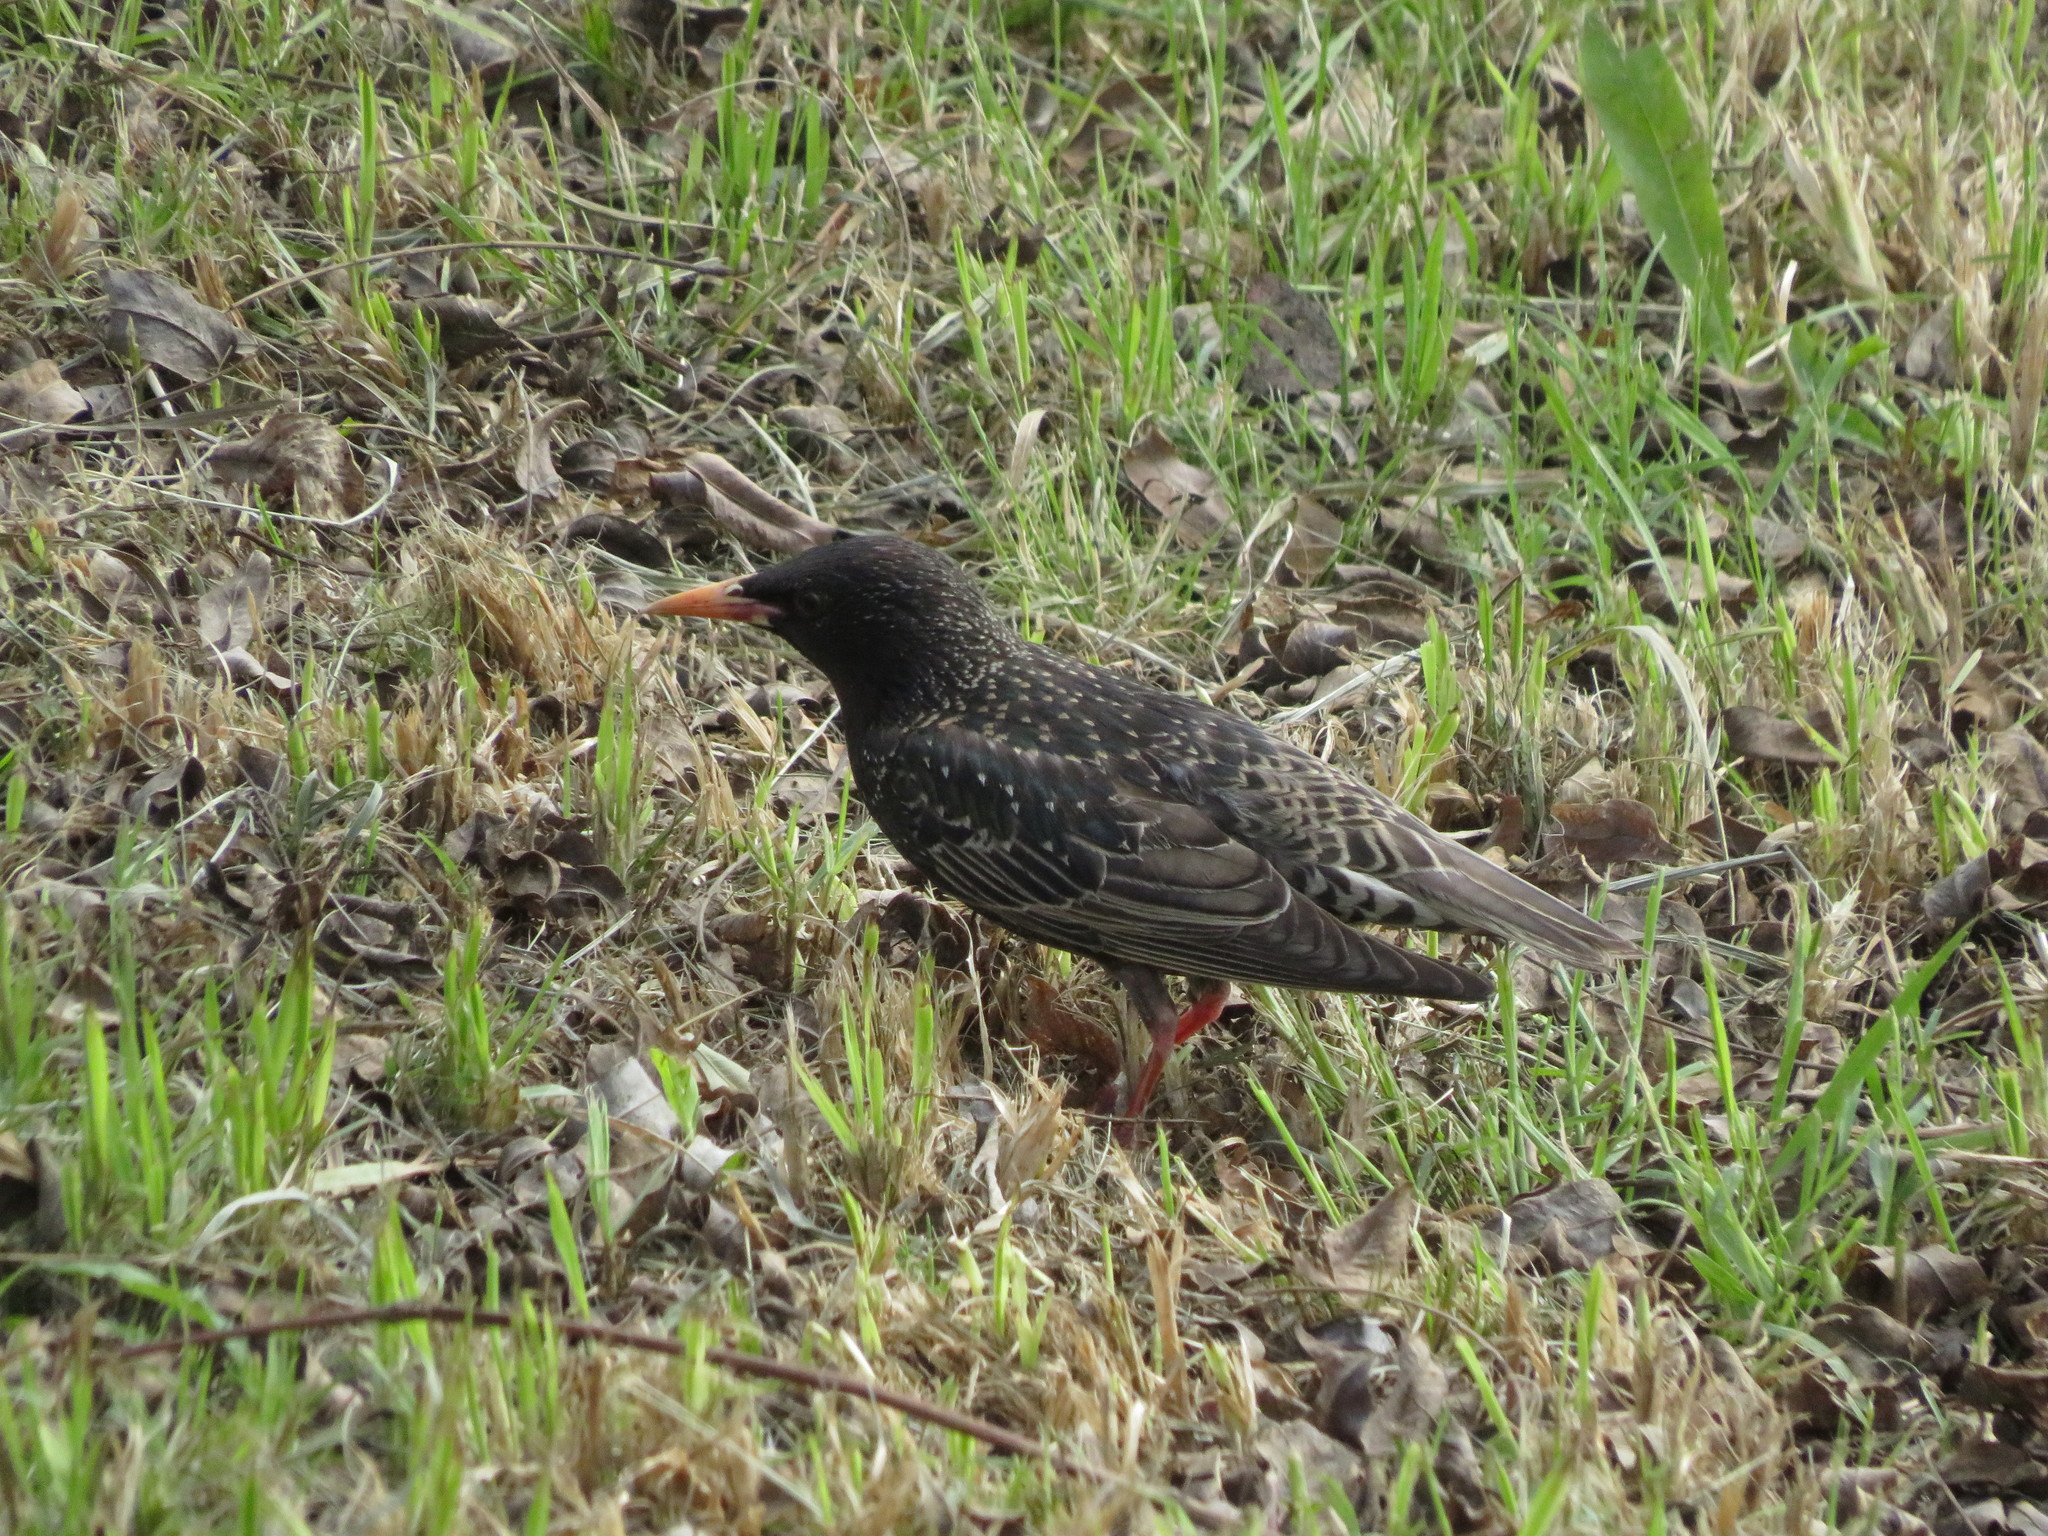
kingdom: Animalia
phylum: Chordata
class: Aves
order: Passeriformes
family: Sturnidae
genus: Sturnus
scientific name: Sturnus vulgaris
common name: Common starling
